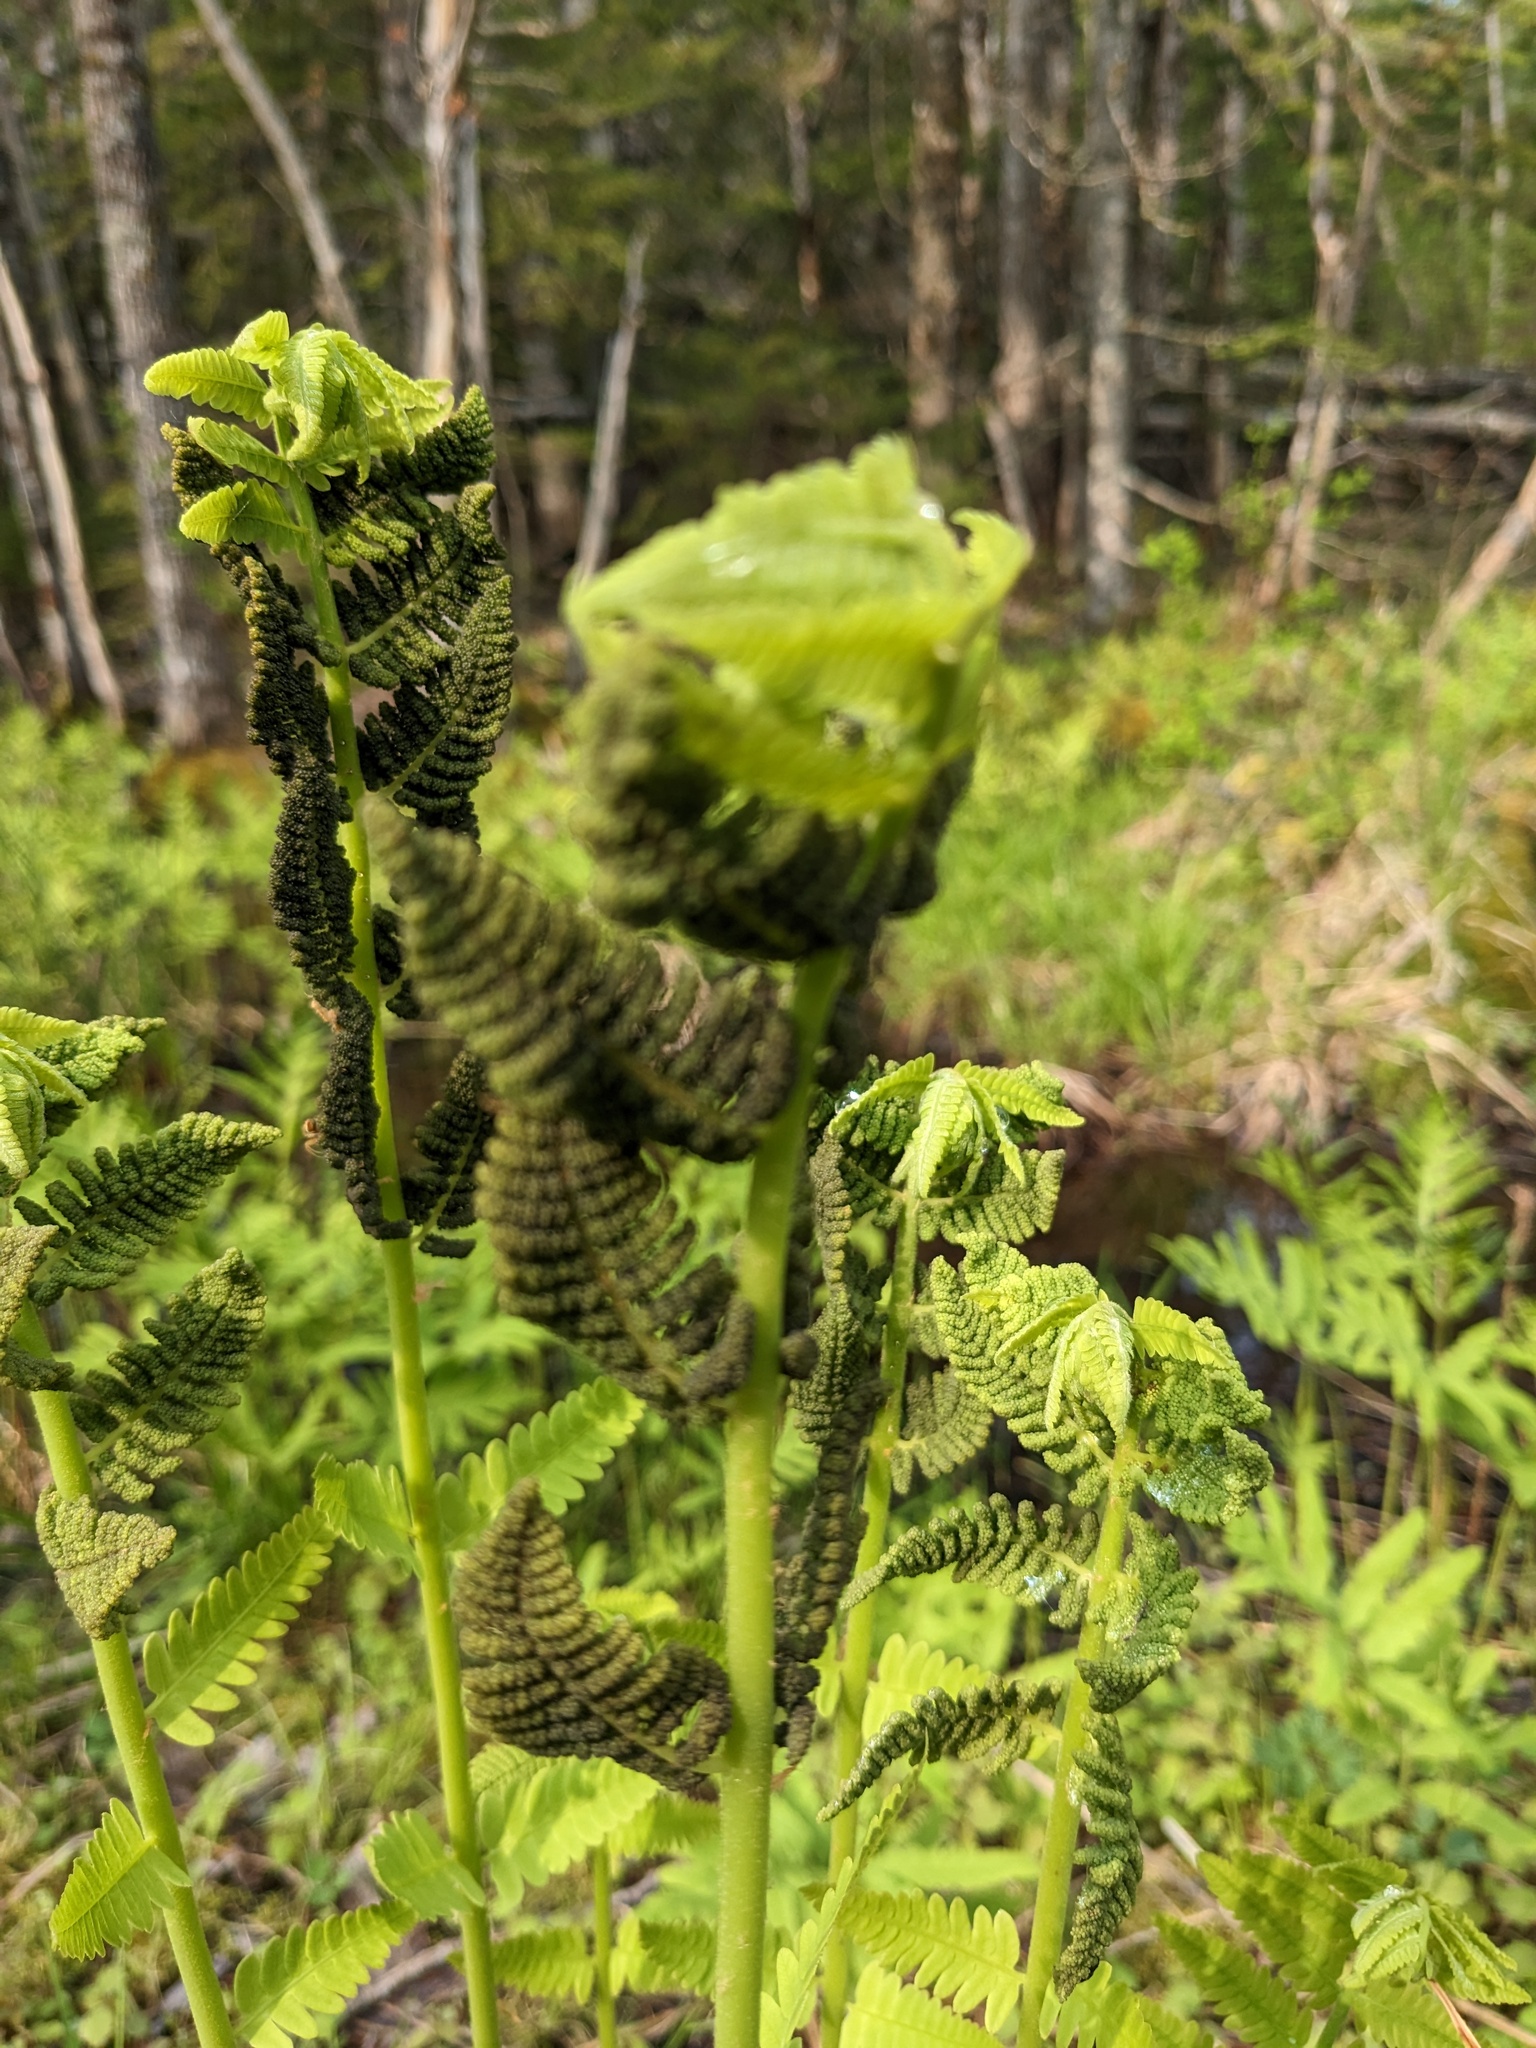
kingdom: Plantae
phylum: Tracheophyta
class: Polypodiopsida
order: Osmundales
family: Osmundaceae
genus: Claytosmunda
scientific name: Claytosmunda claytoniana
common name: Clayton's fern
